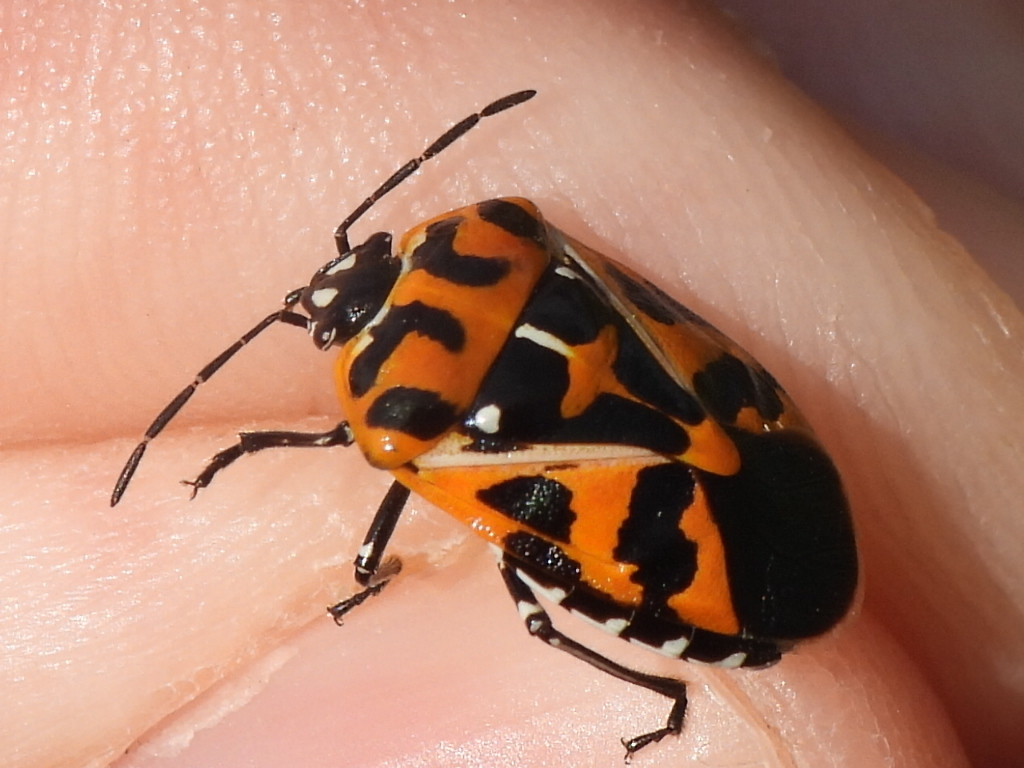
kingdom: Animalia
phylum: Arthropoda
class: Insecta
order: Hemiptera
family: Pentatomidae
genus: Murgantia
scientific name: Murgantia histrionica
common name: Harlequin bug
